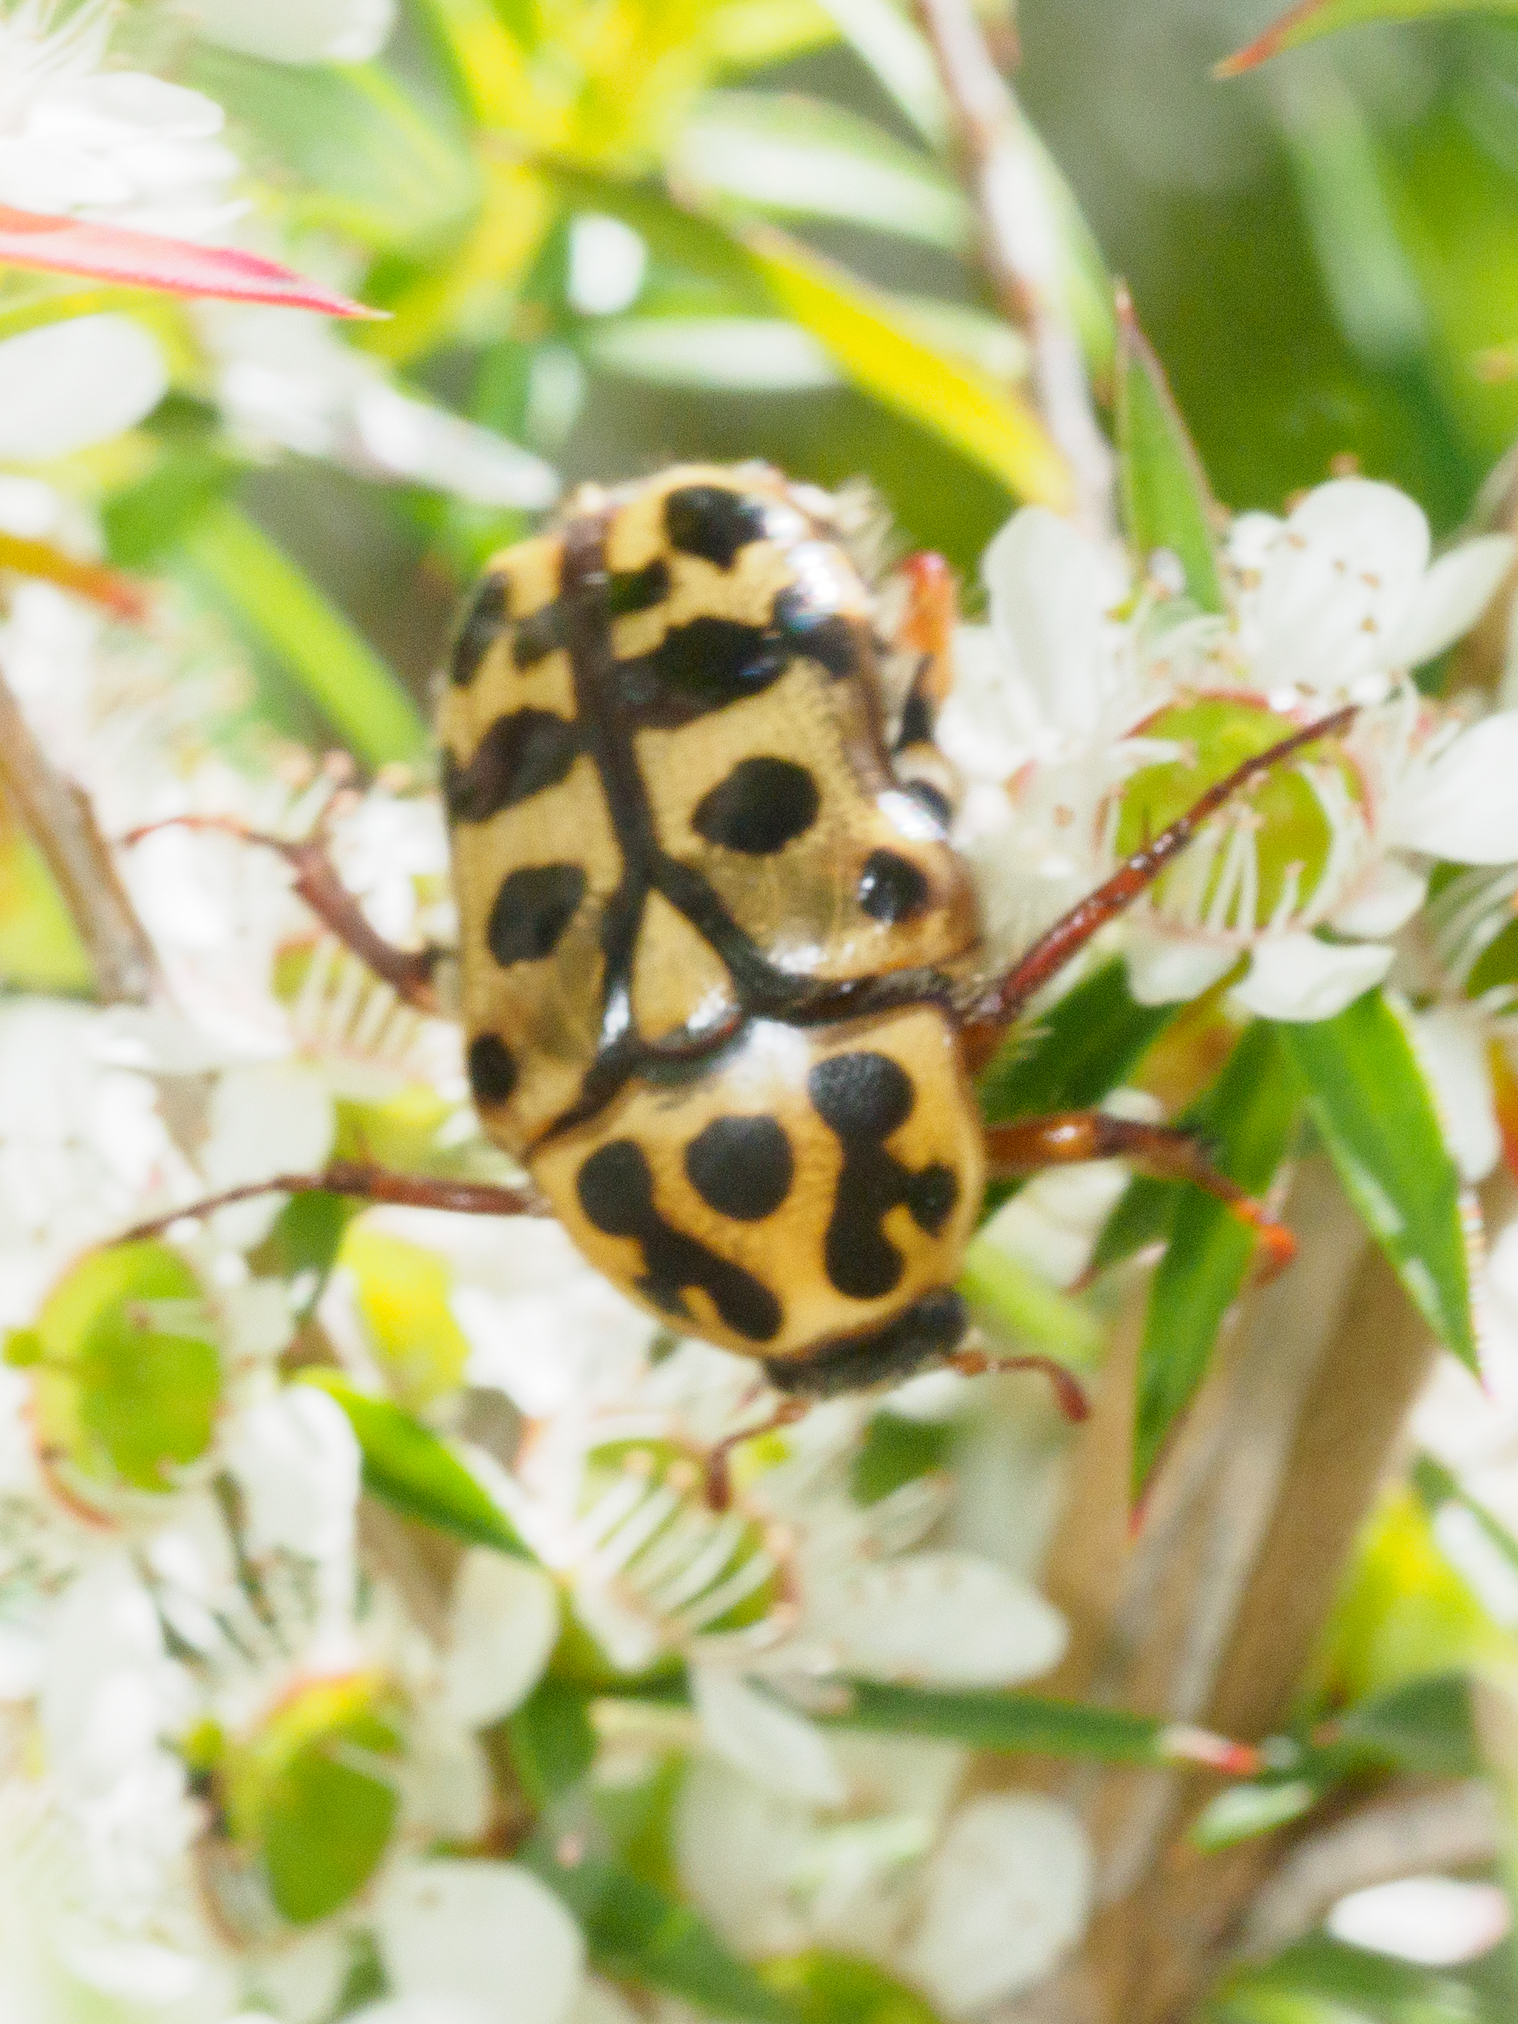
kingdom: Animalia
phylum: Arthropoda
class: Insecta
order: Coleoptera
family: Scarabaeidae
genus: Neorrhina
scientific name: Neorrhina punctatum
